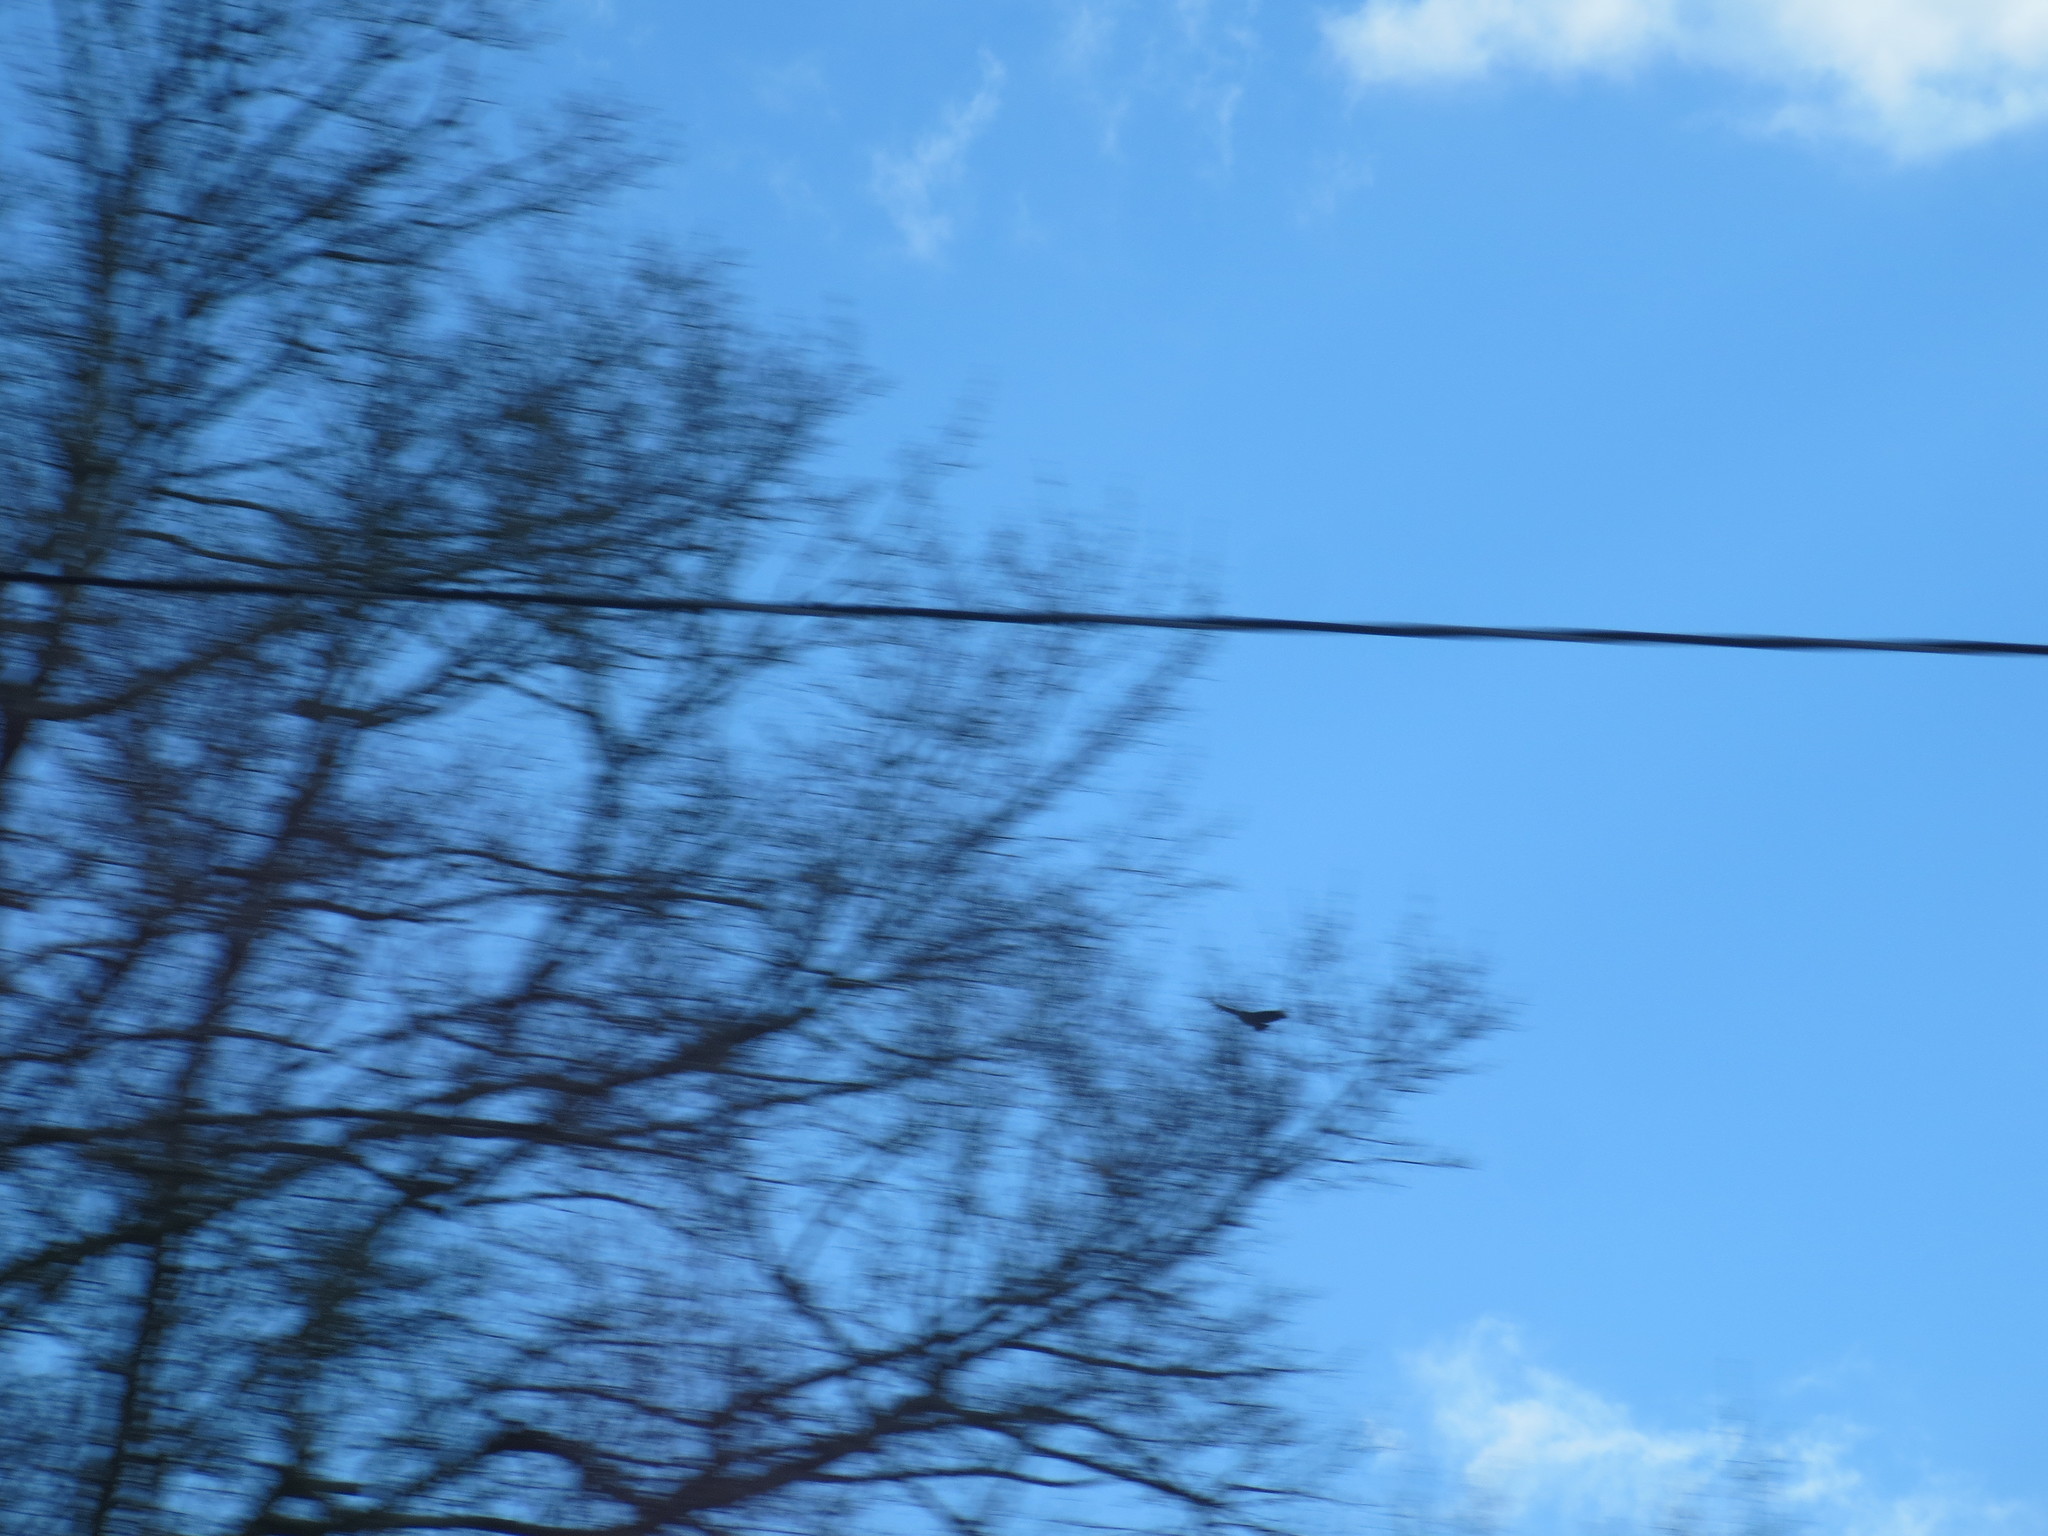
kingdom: Animalia
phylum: Chordata
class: Aves
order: Accipitriformes
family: Cathartidae
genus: Coragyps
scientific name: Coragyps atratus
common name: Black vulture
